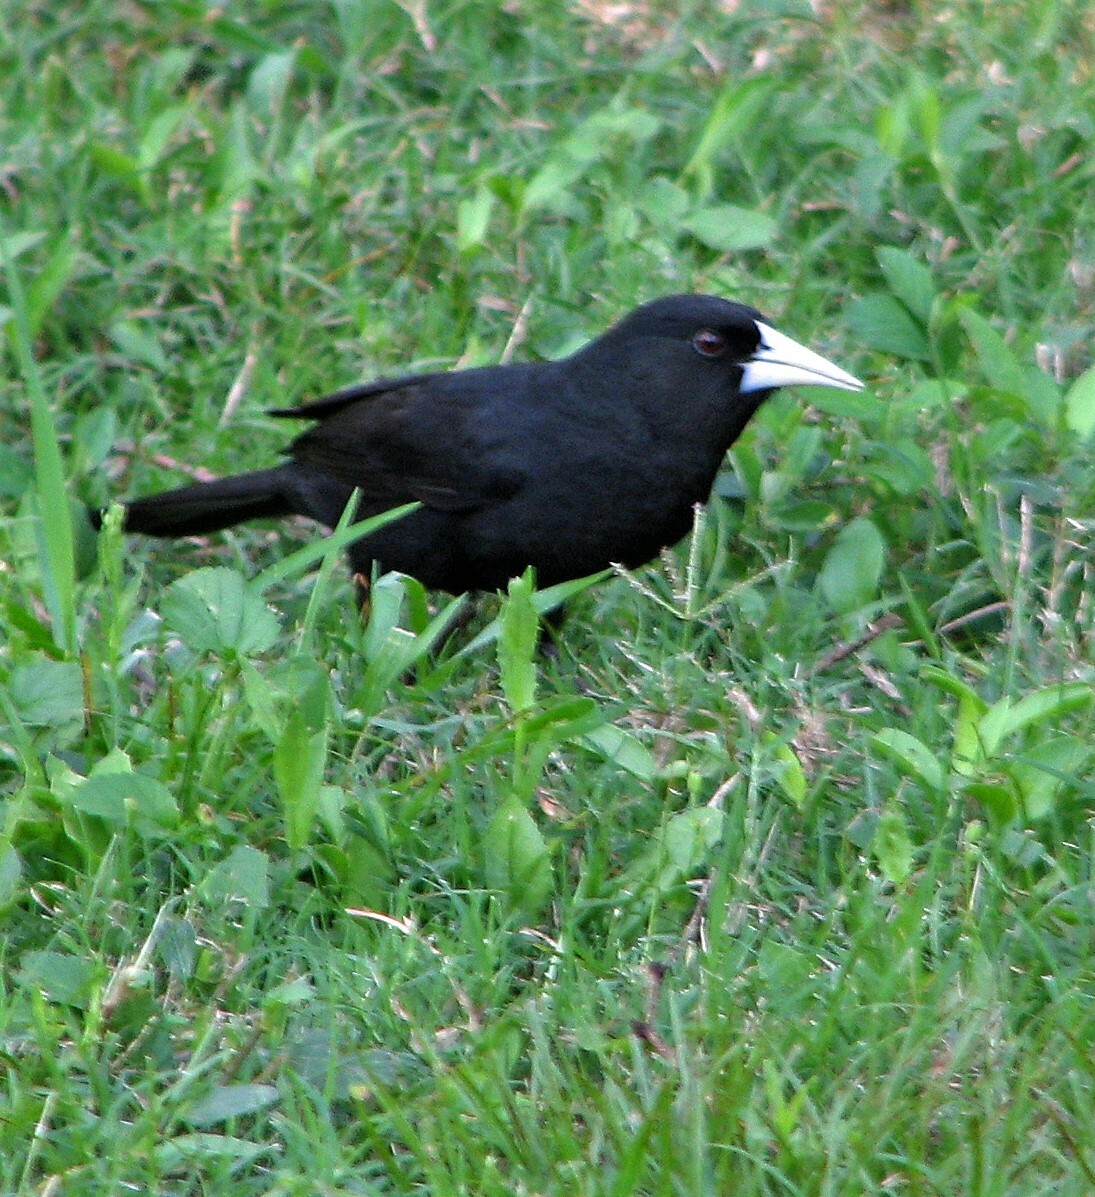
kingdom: Animalia
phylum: Chordata
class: Aves
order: Passeriformes
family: Icteridae
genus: Cacicus
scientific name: Cacicus solitarius
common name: Solitary cacique
